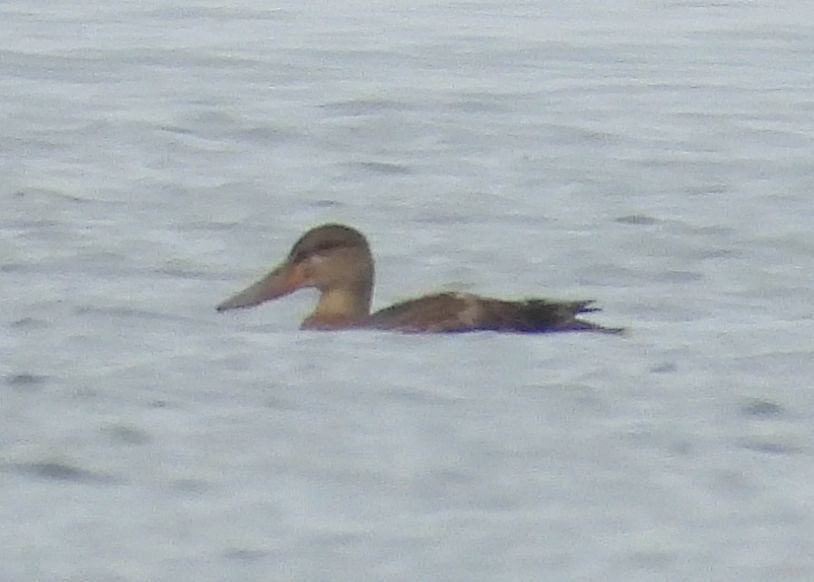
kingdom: Animalia
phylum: Chordata
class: Aves
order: Anseriformes
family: Anatidae
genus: Spatula
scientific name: Spatula clypeata
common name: Northern shoveler
